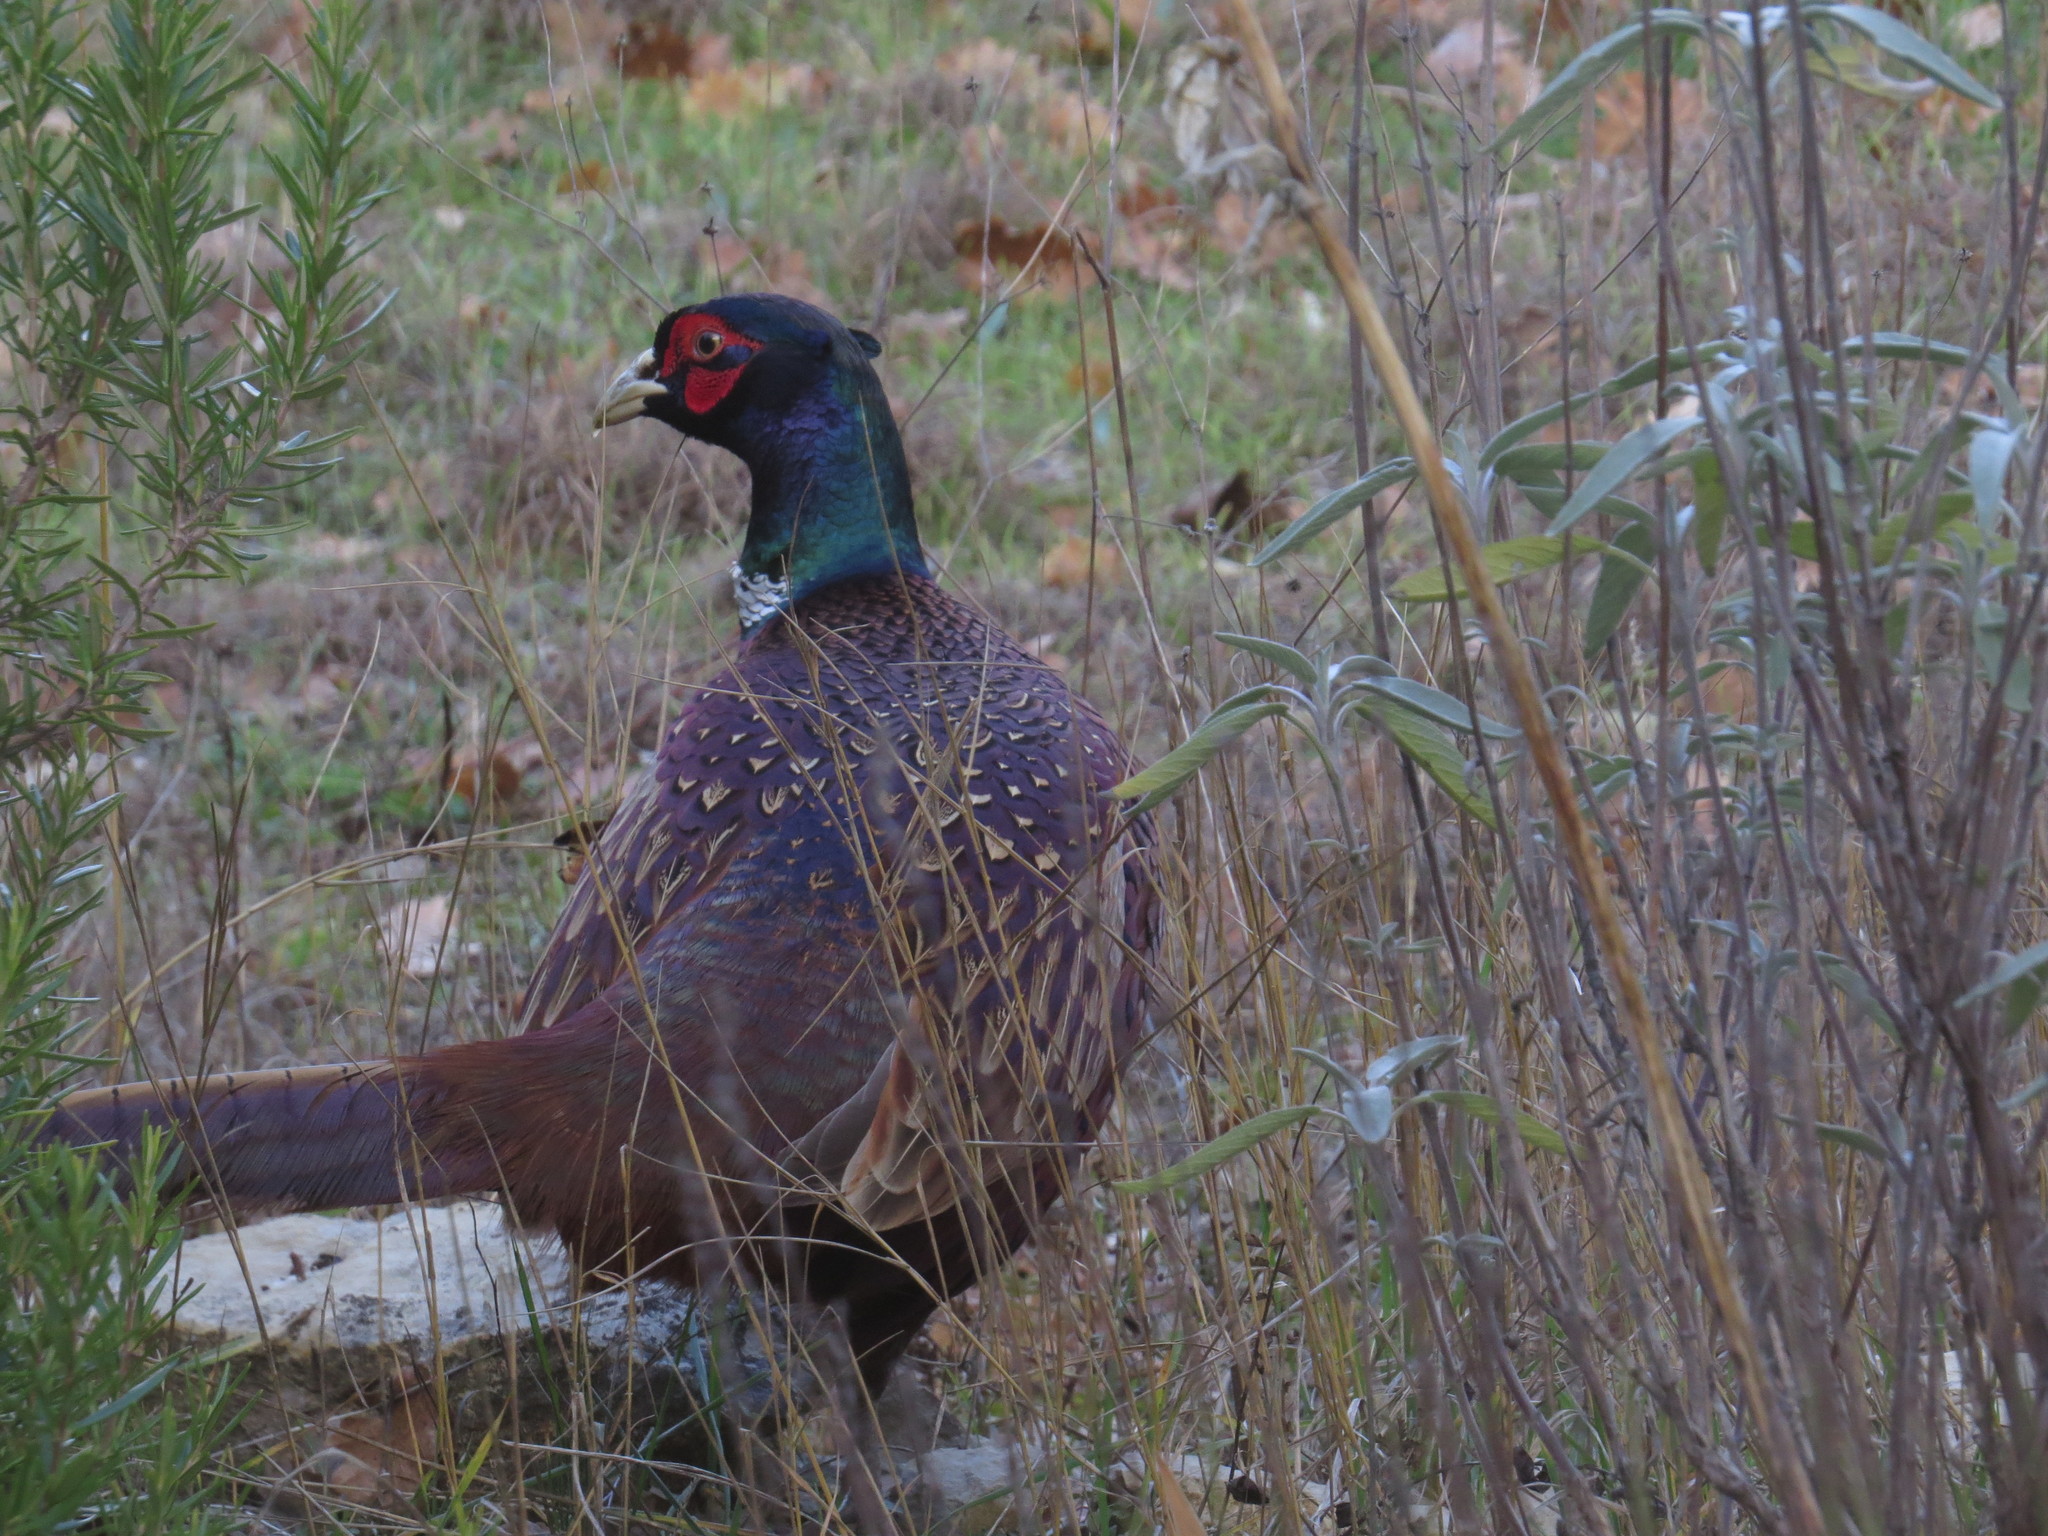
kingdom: Animalia
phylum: Chordata
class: Aves
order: Galliformes
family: Phasianidae
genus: Phasianus
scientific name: Phasianus colchicus
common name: Common pheasant
